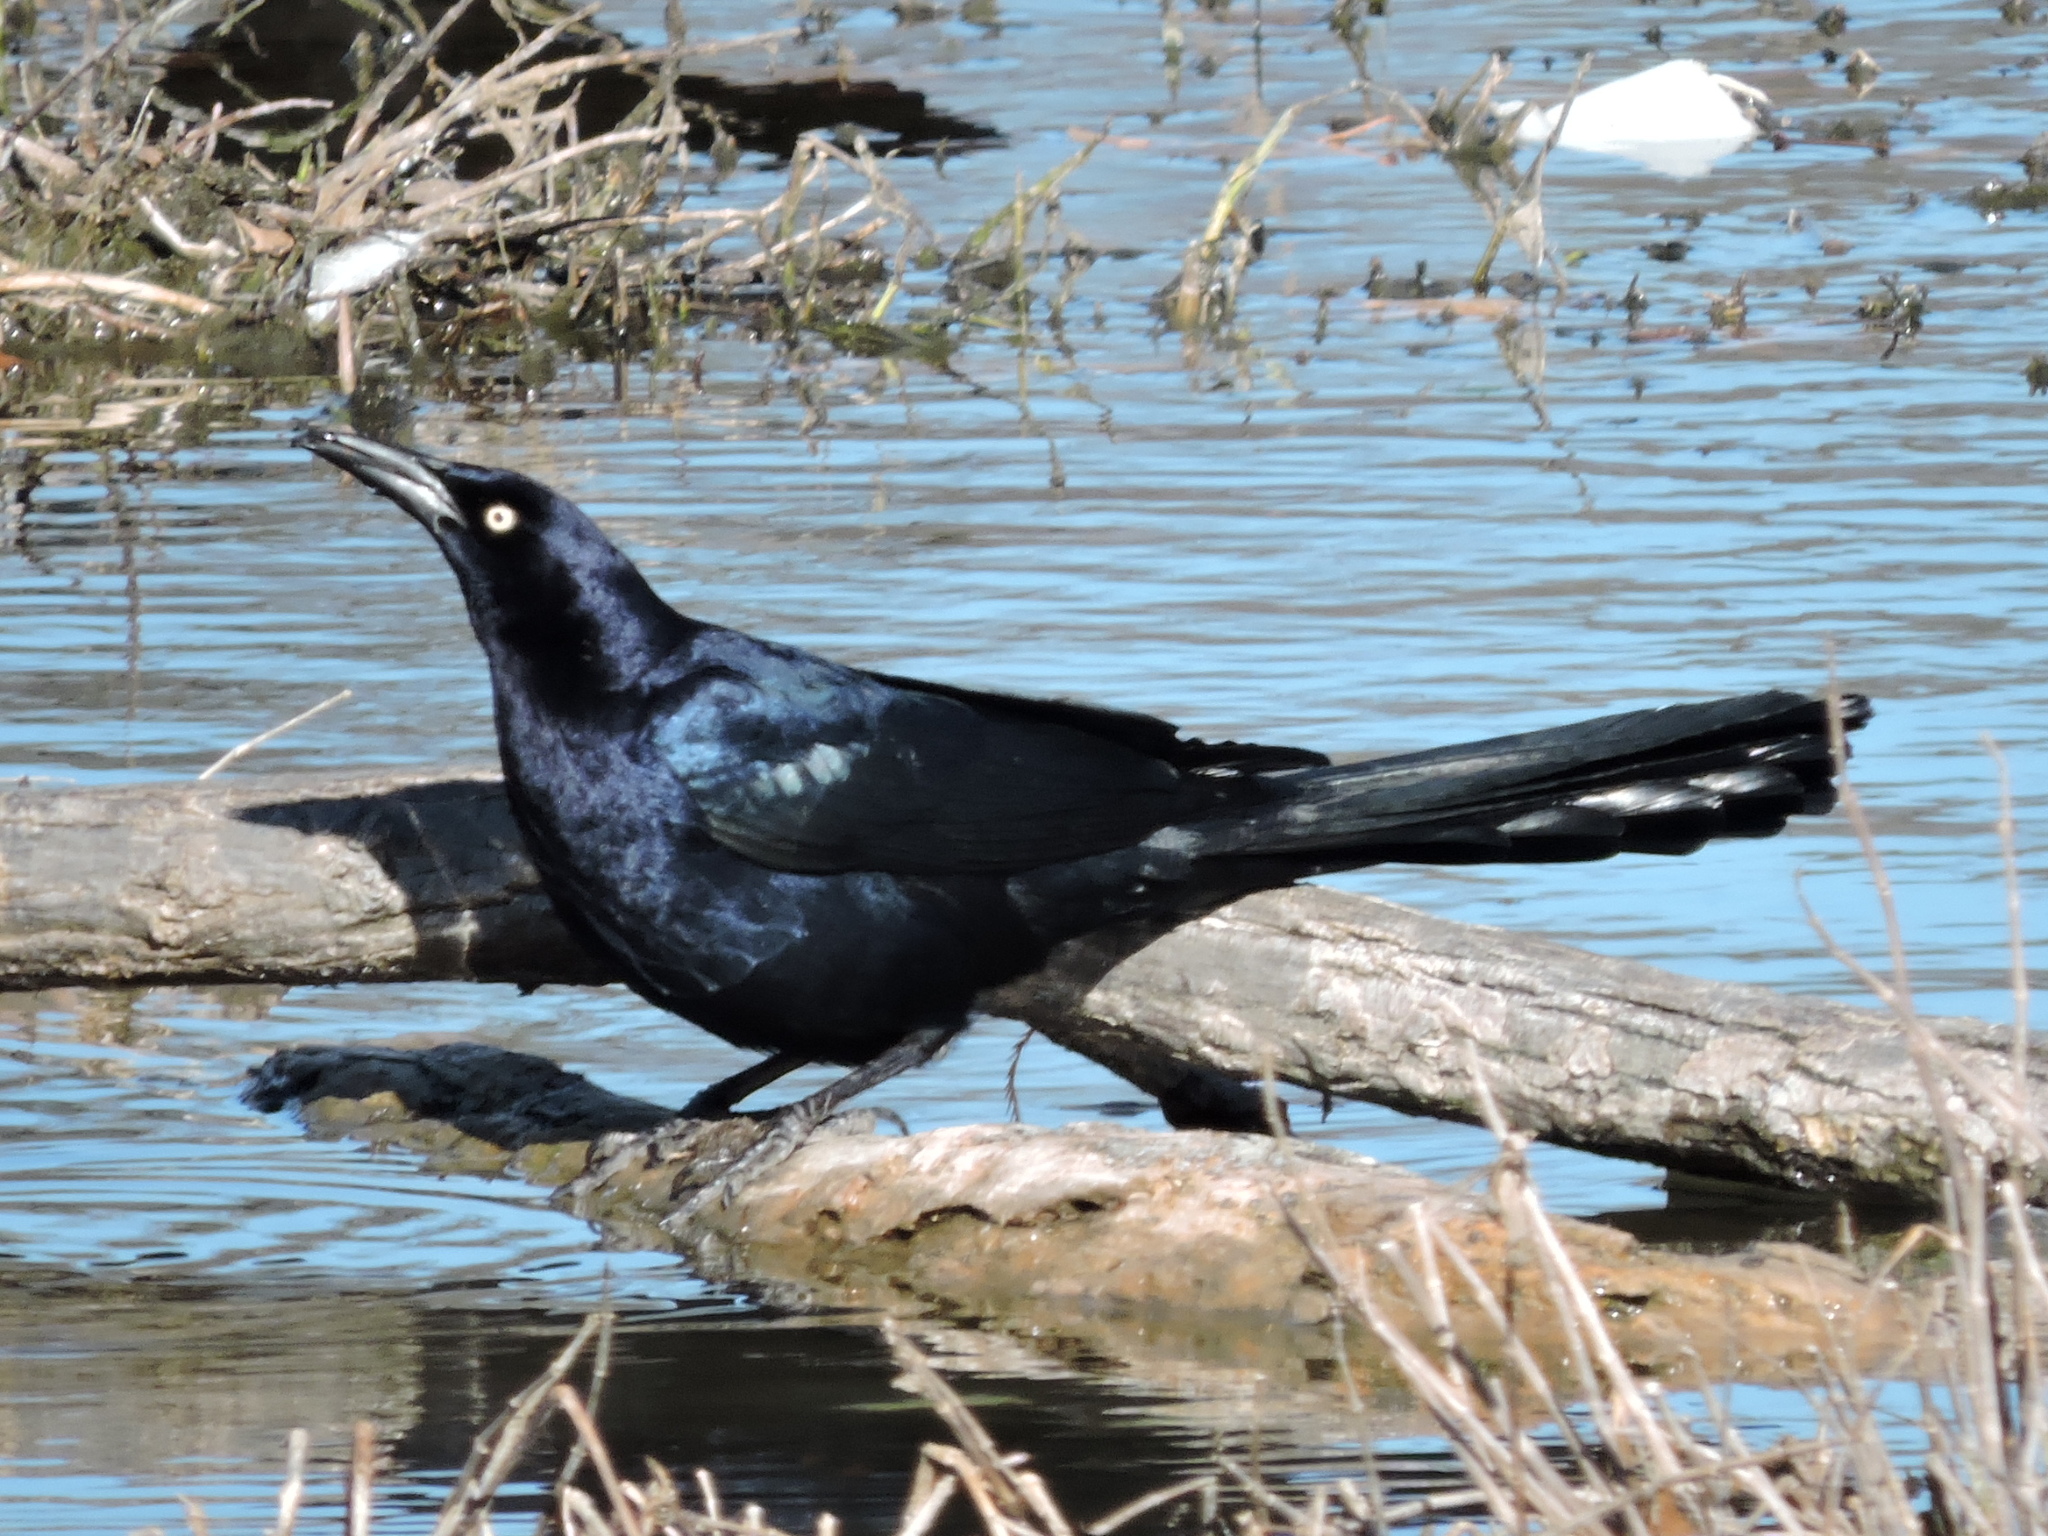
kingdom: Animalia
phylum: Chordata
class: Aves
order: Passeriformes
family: Icteridae
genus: Quiscalus
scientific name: Quiscalus mexicanus
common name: Great-tailed grackle
